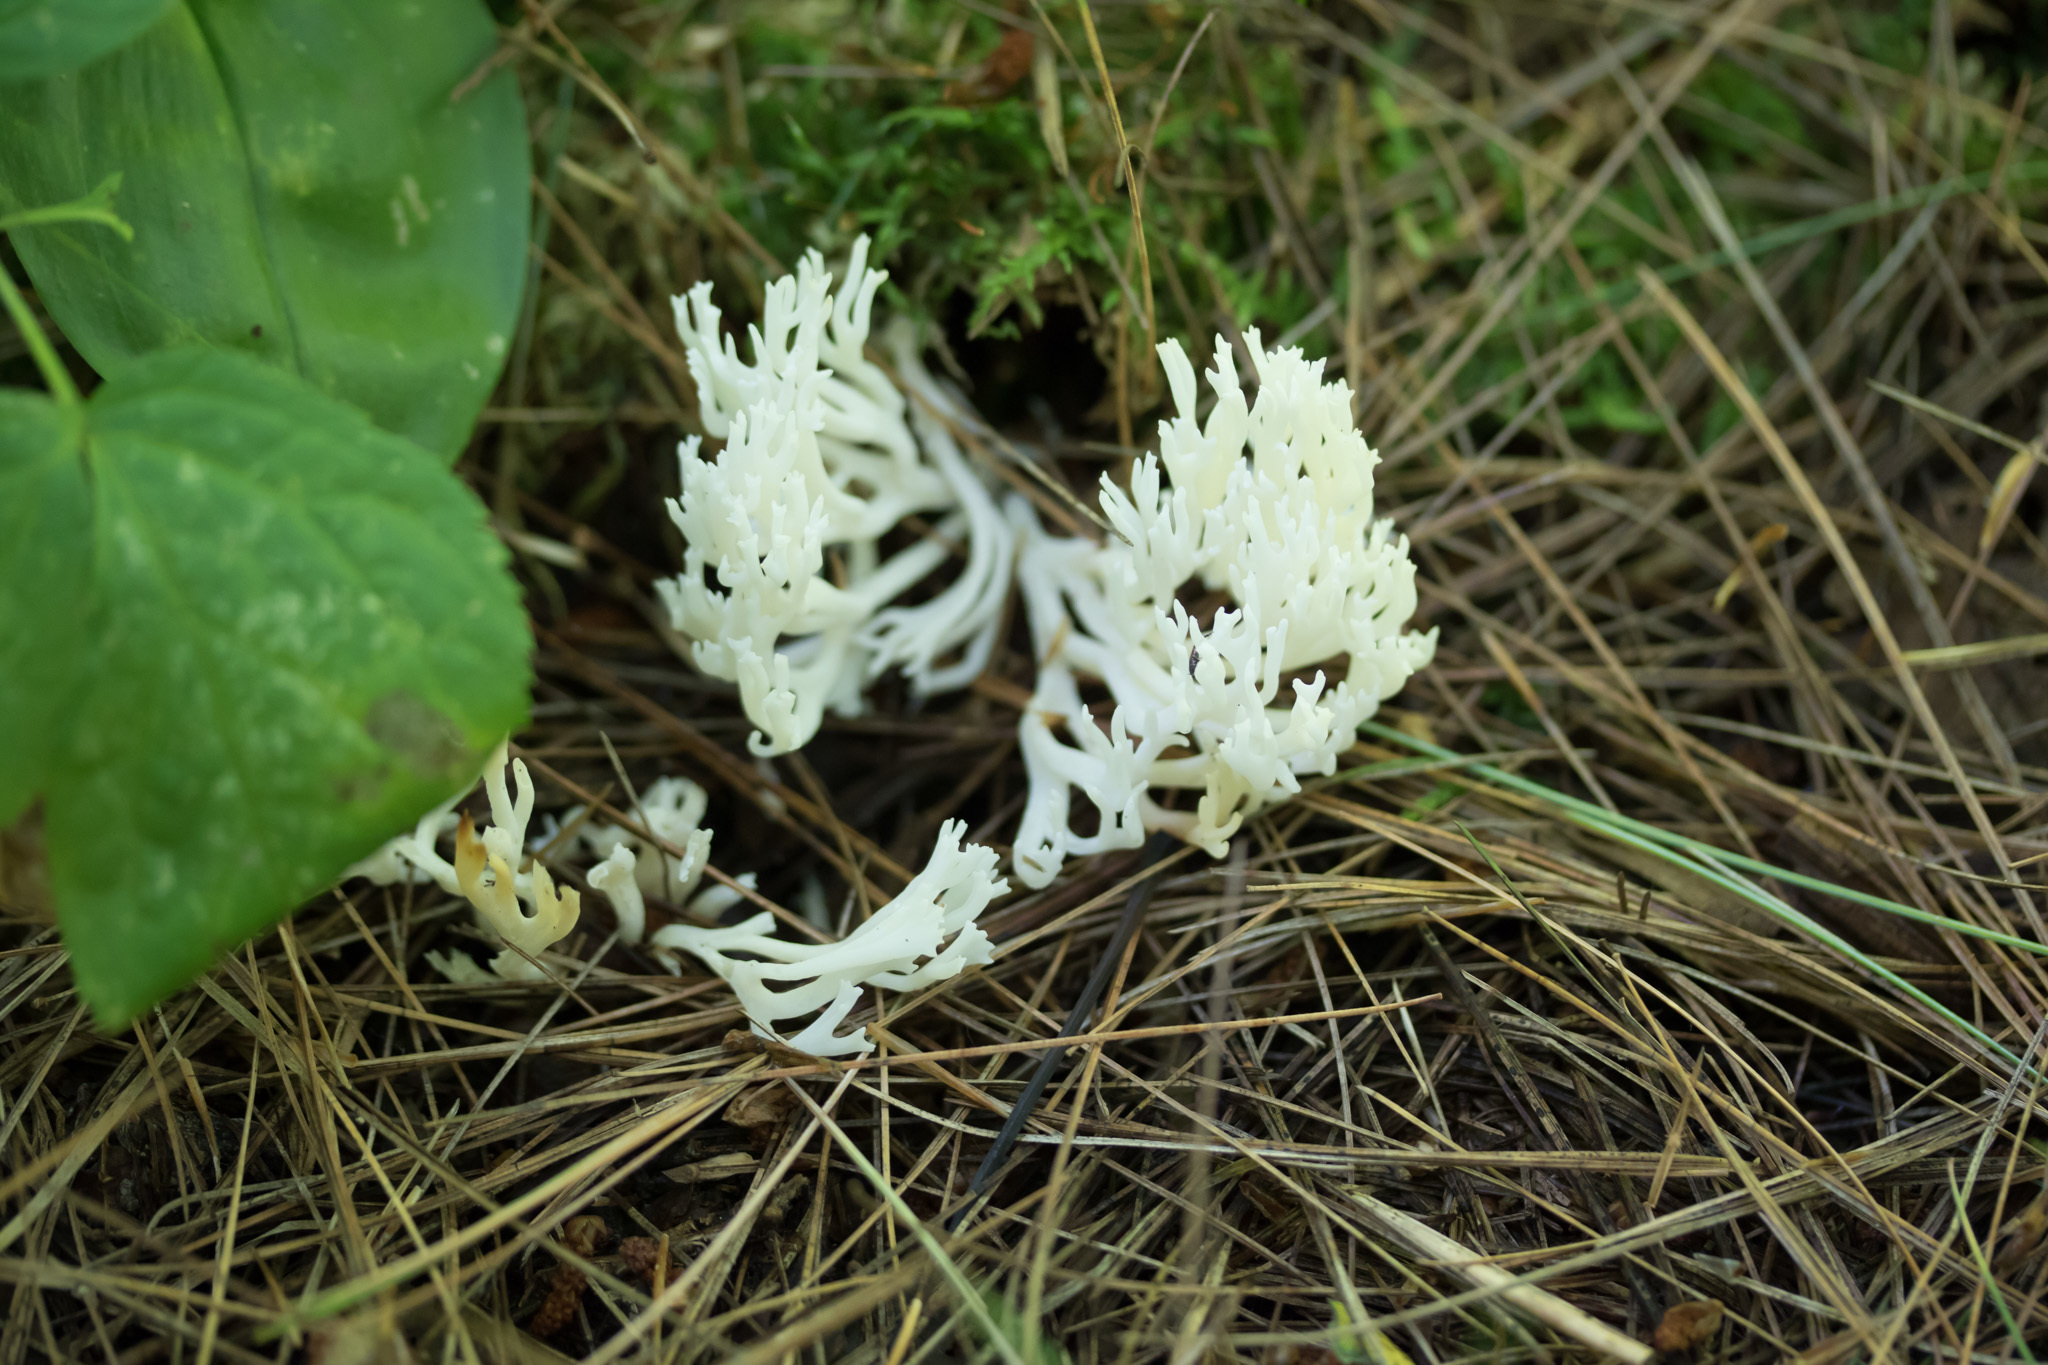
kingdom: Fungi
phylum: Basidiomycota
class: Agaricomycetes
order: Cantharellales
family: Hydnaceae
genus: Clavulina
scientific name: Clavulina coralloides
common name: Crested coral
